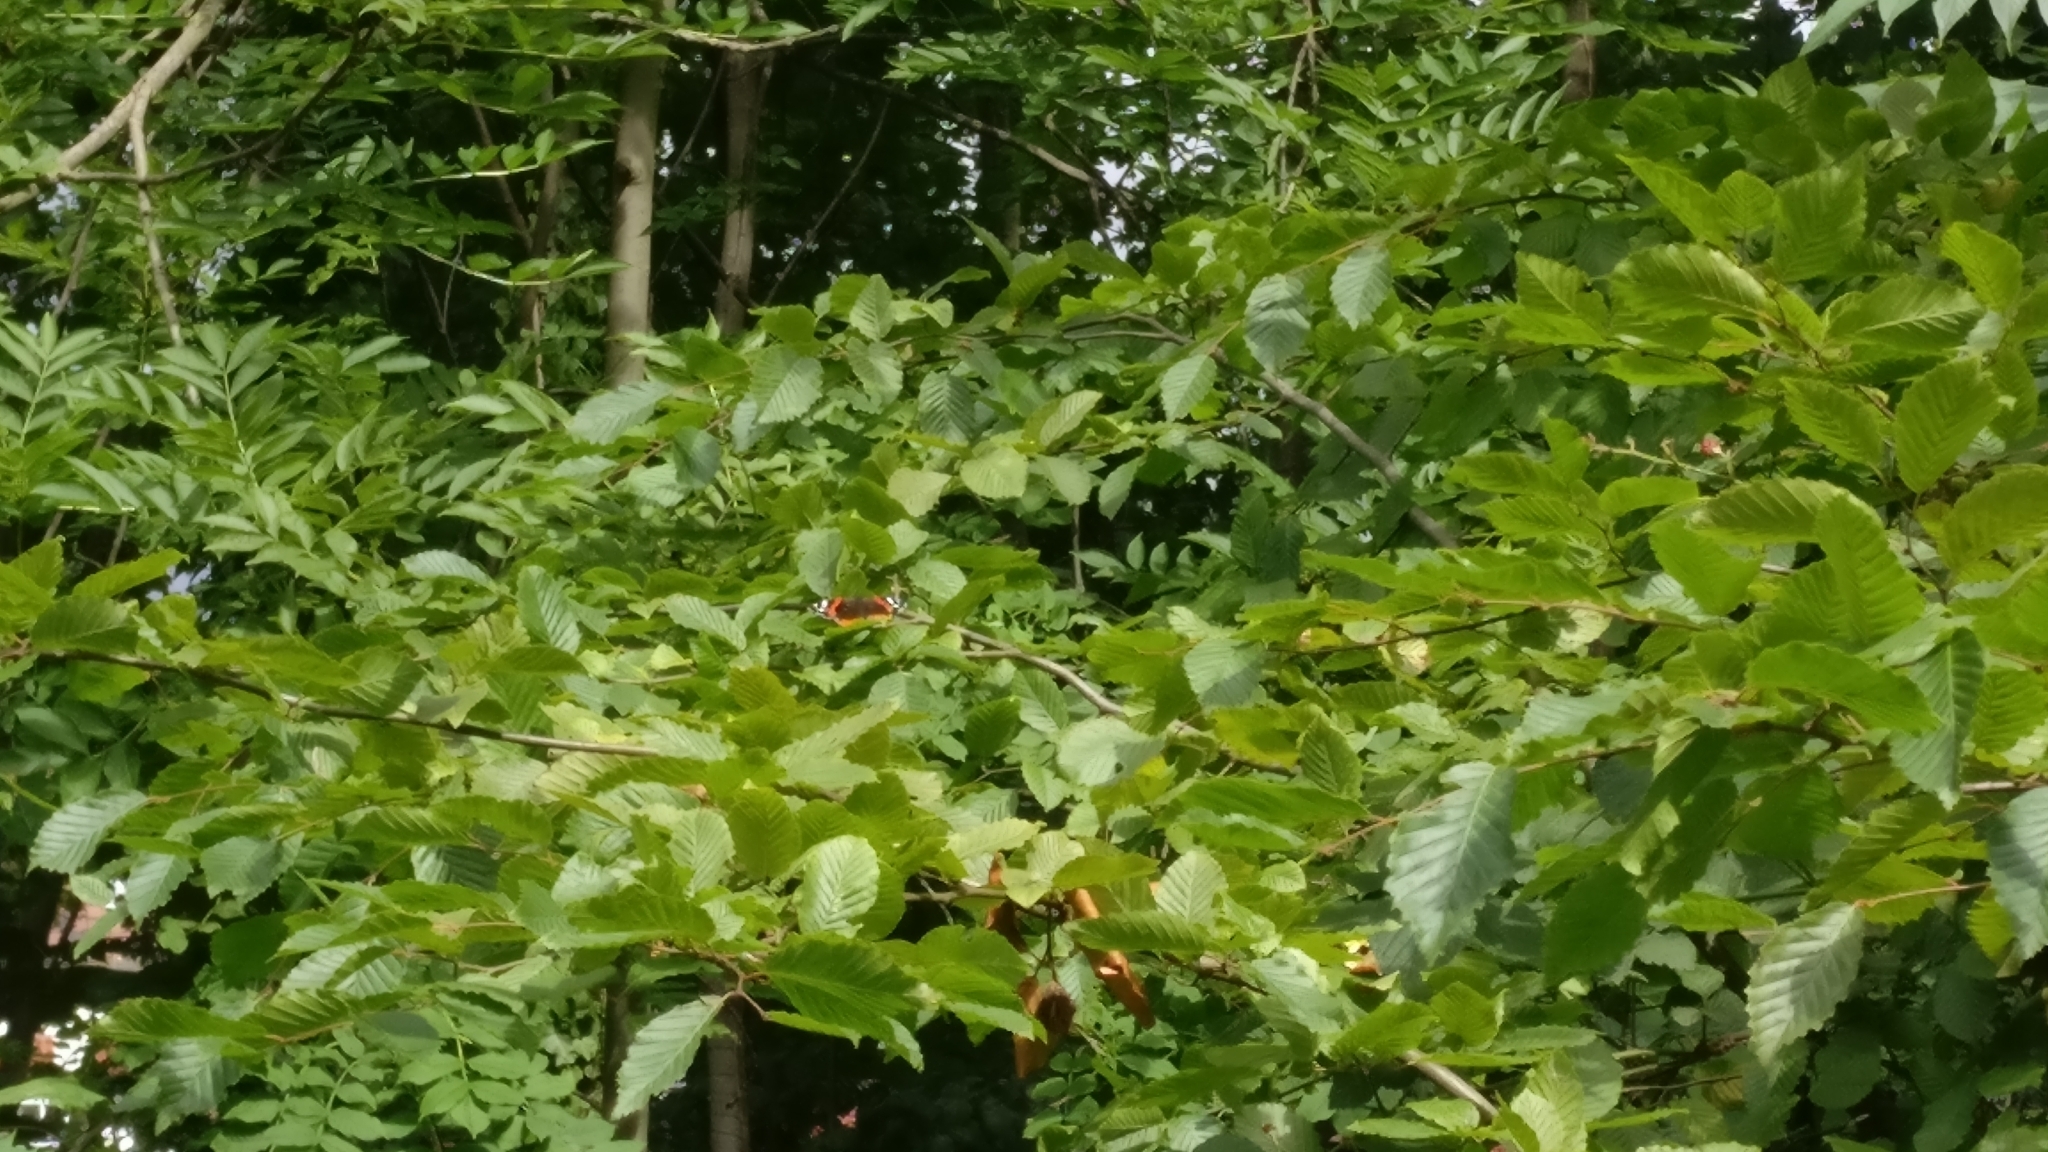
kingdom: Animalia
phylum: Arthropoda
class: Insecta
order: Lepidoptera
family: Nymphalidae
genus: Vanessa
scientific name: Vanessa atalanta
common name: Red admiral
